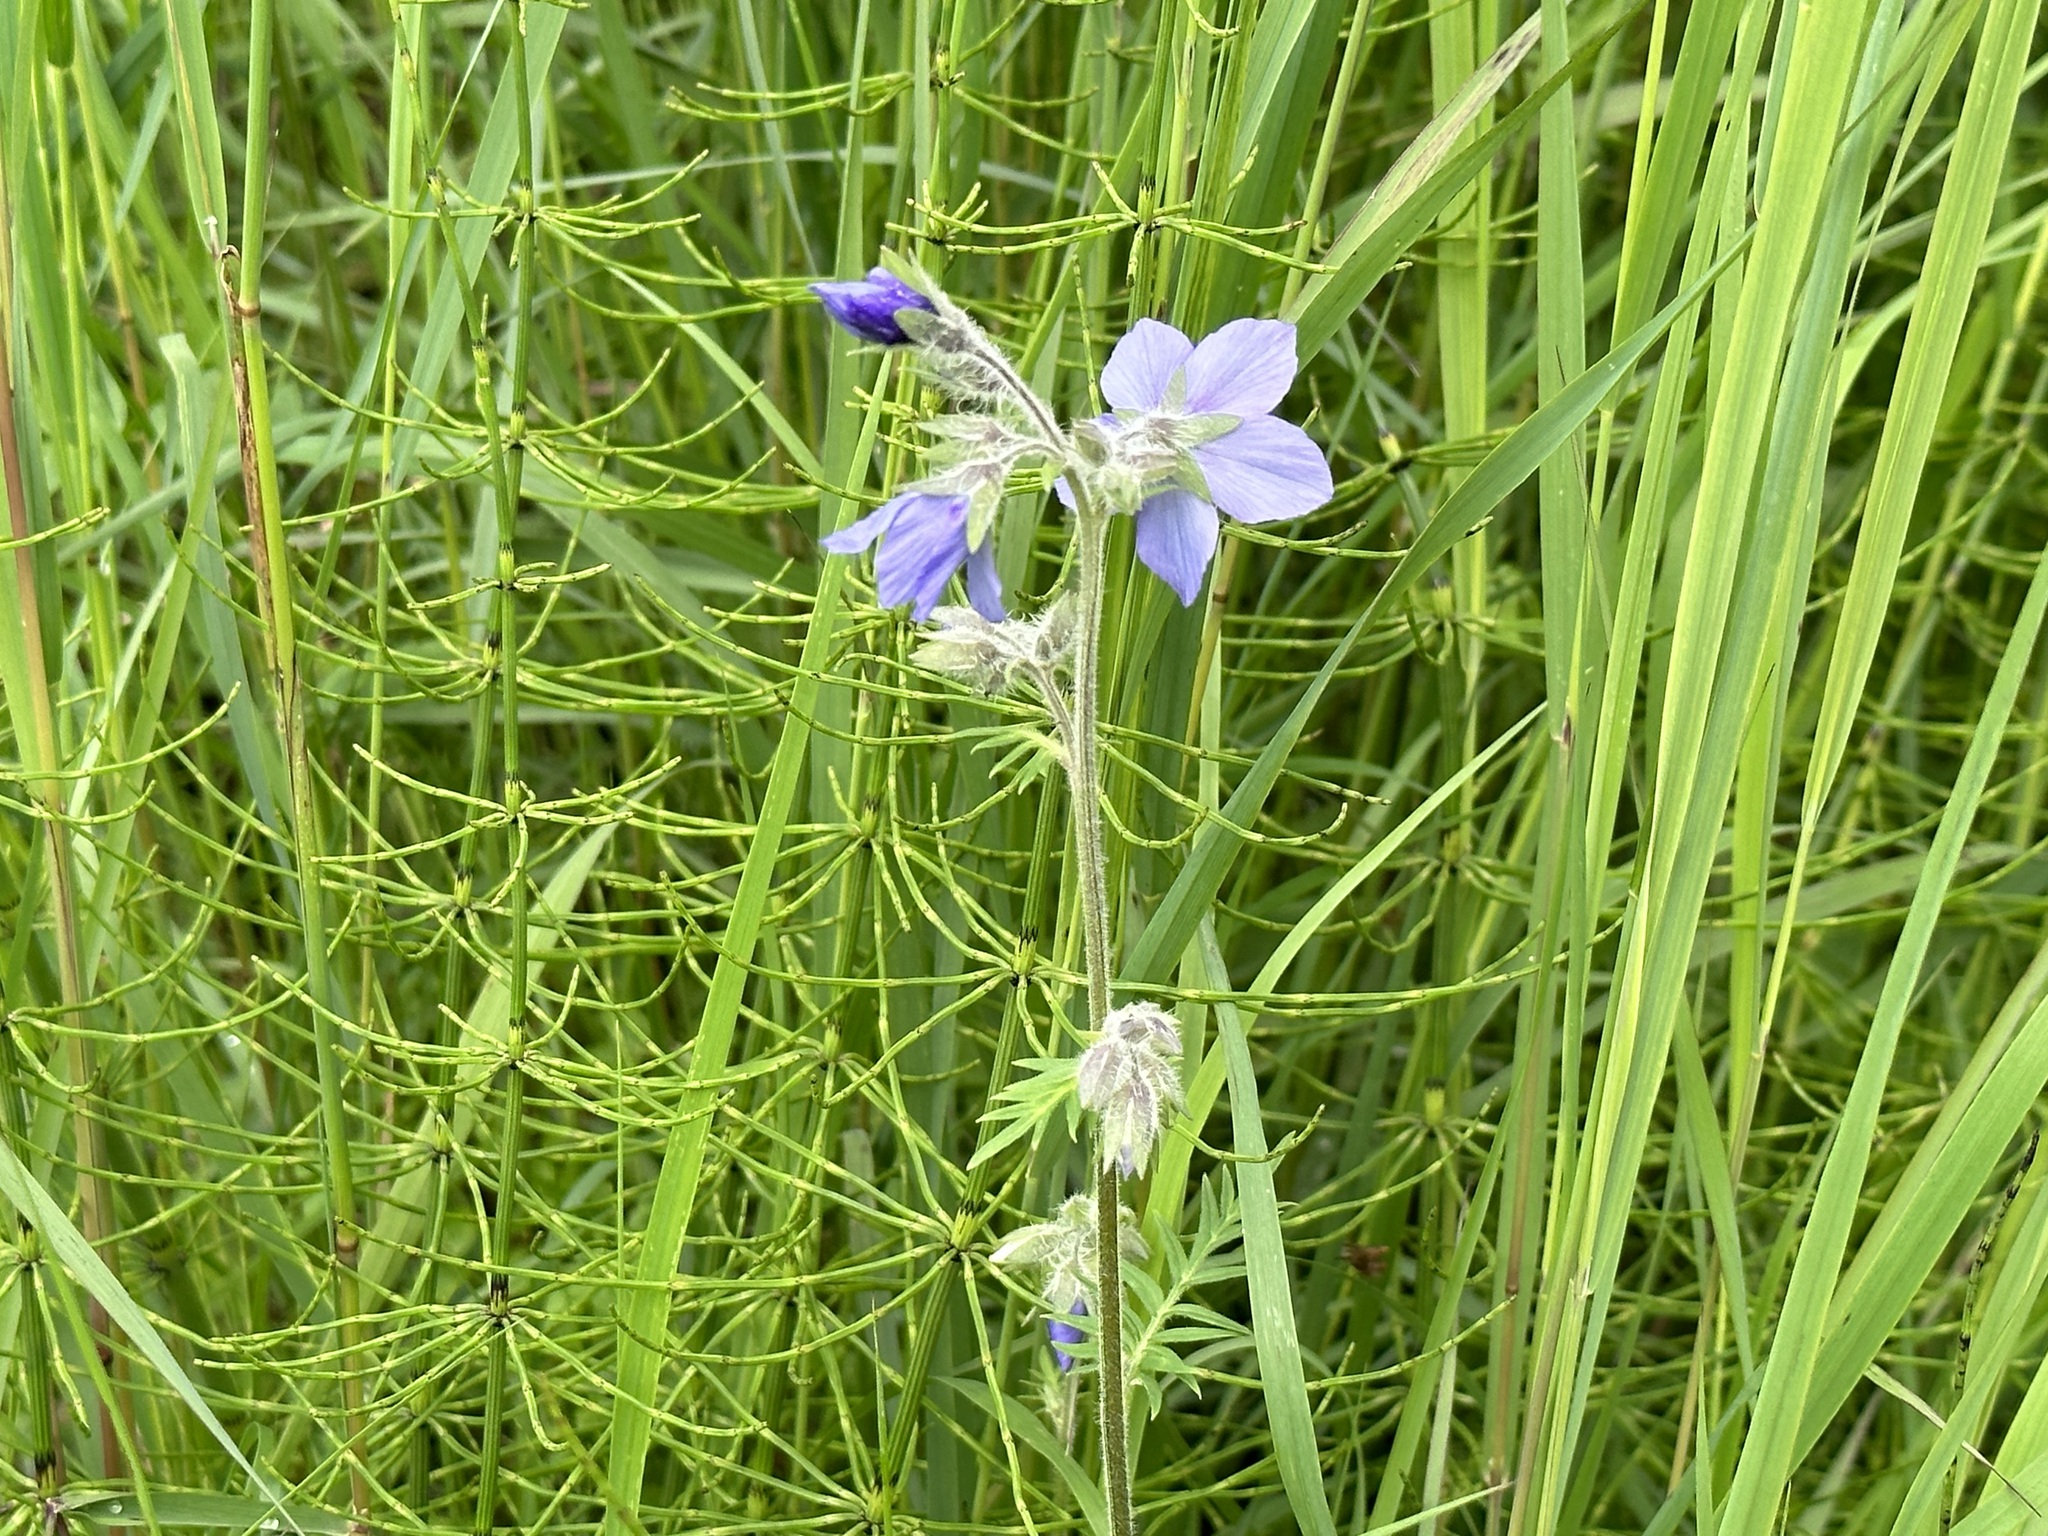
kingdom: Plantae
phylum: Tracheophyta
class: Magnoliopsida
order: Ericales
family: Polemoniaceae
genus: Polemonium
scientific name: Polemonium acutiflorum
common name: Tall jacob's-ladder
